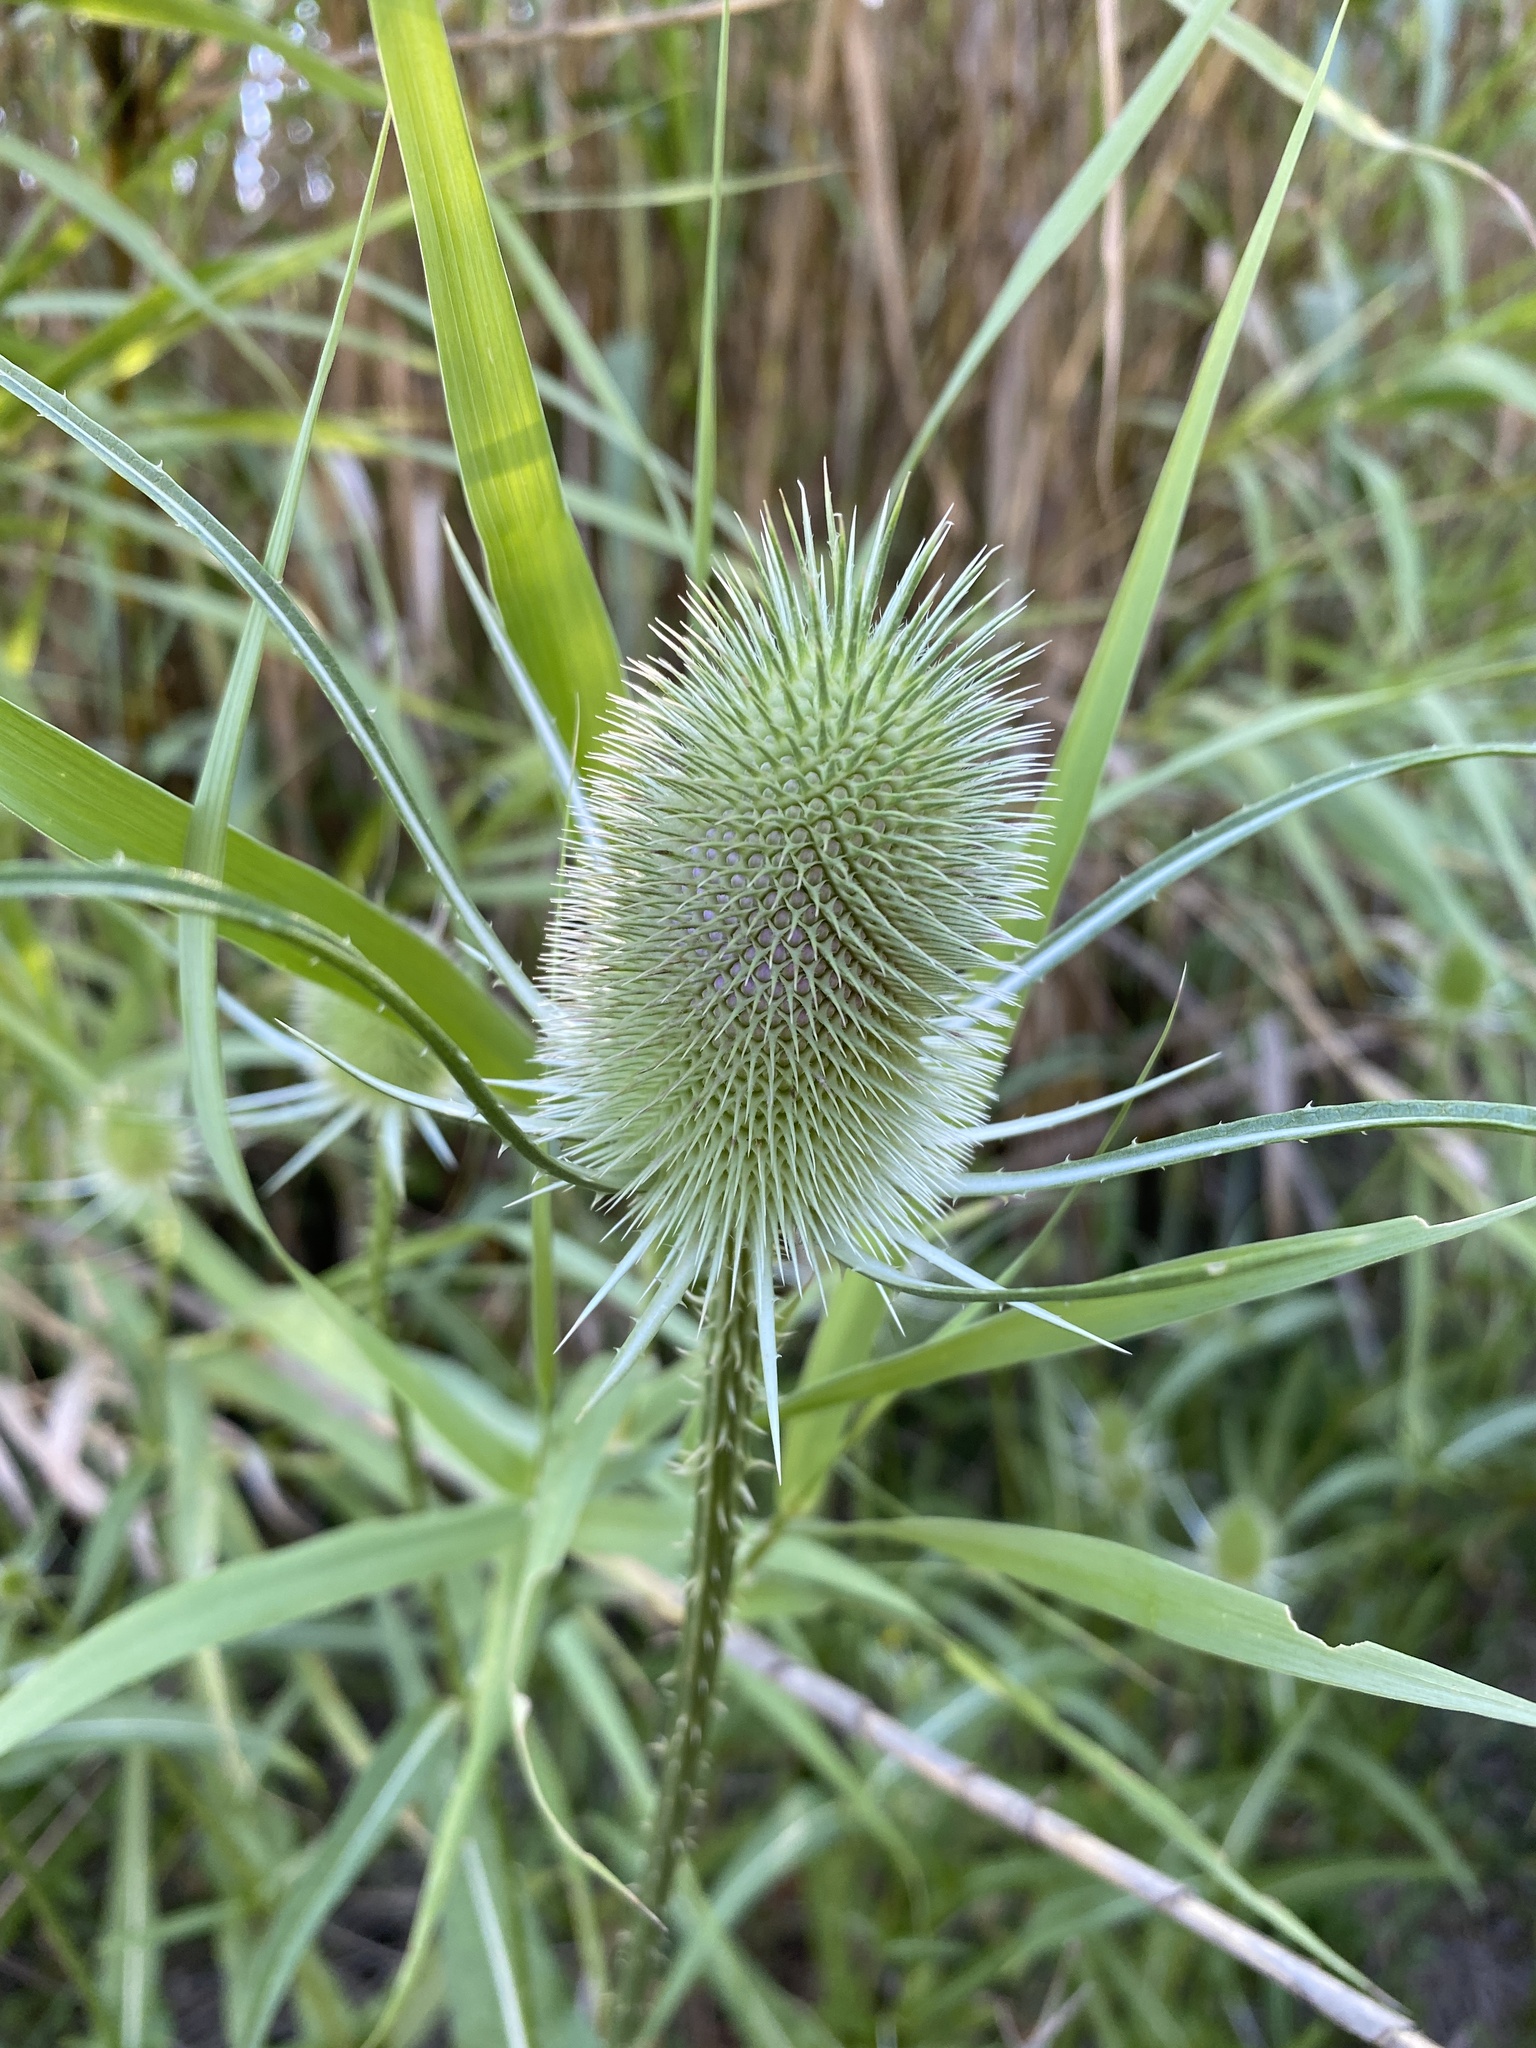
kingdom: Plantae
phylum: Tracheophyta
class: Magnoliopsida
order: Dipsacales
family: Caprifoliaceae
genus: Dipsacus
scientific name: Dipsacus fullonum
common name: Teasel
